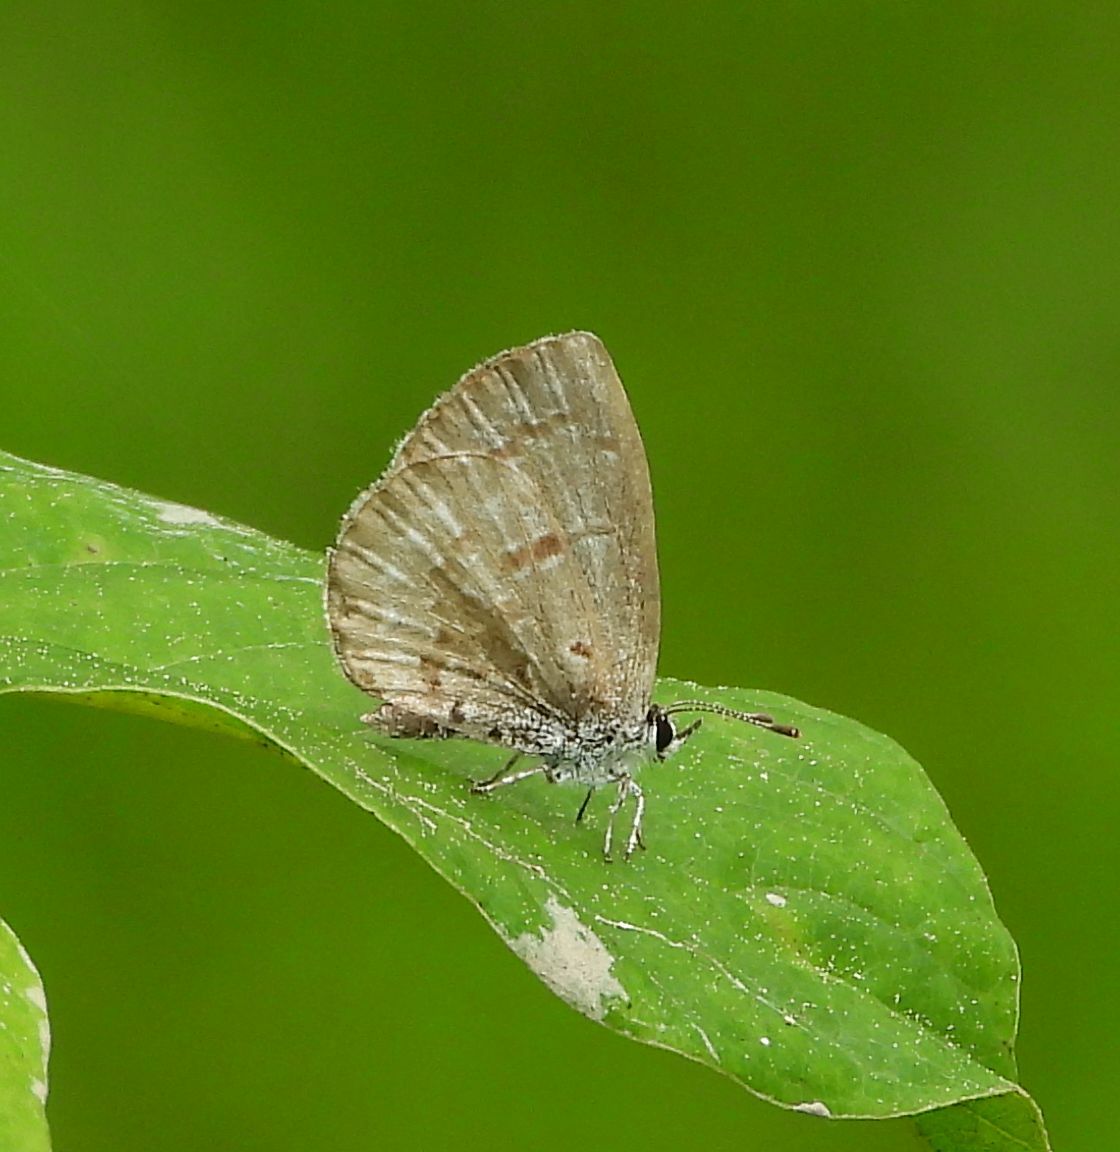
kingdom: Animalia
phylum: Arthropoda
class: Insecta
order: Lepidoptera
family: Lycaenidae
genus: Celastrina
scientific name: Celastrina lucia
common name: Lucia azure
